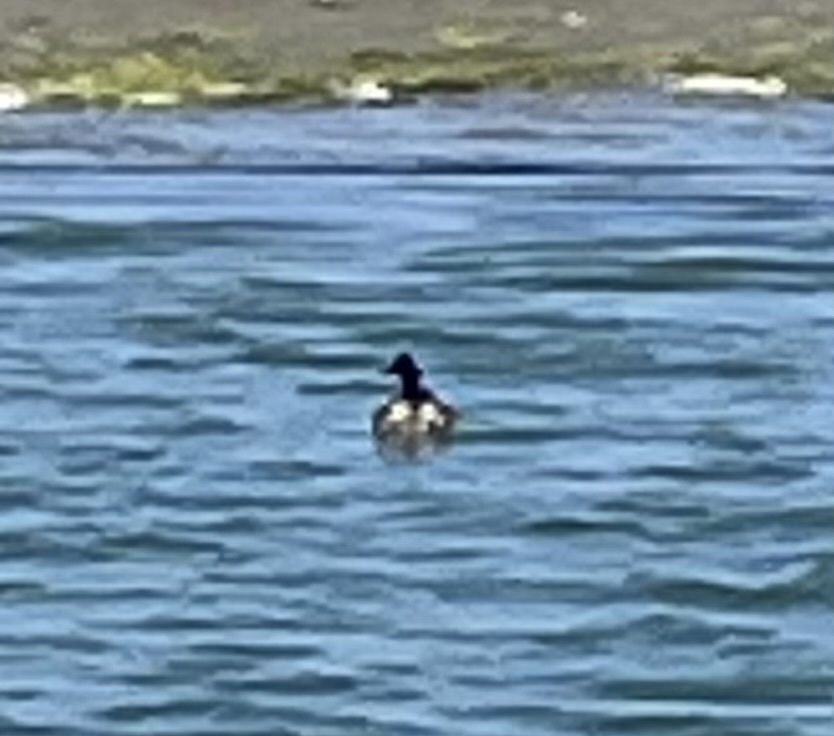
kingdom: Animalia
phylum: Chordata
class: Aves
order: Podicipediformes
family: Podicipedidae
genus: Podiceps
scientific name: Podiceps nigricollis
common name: Black-necked grebe
